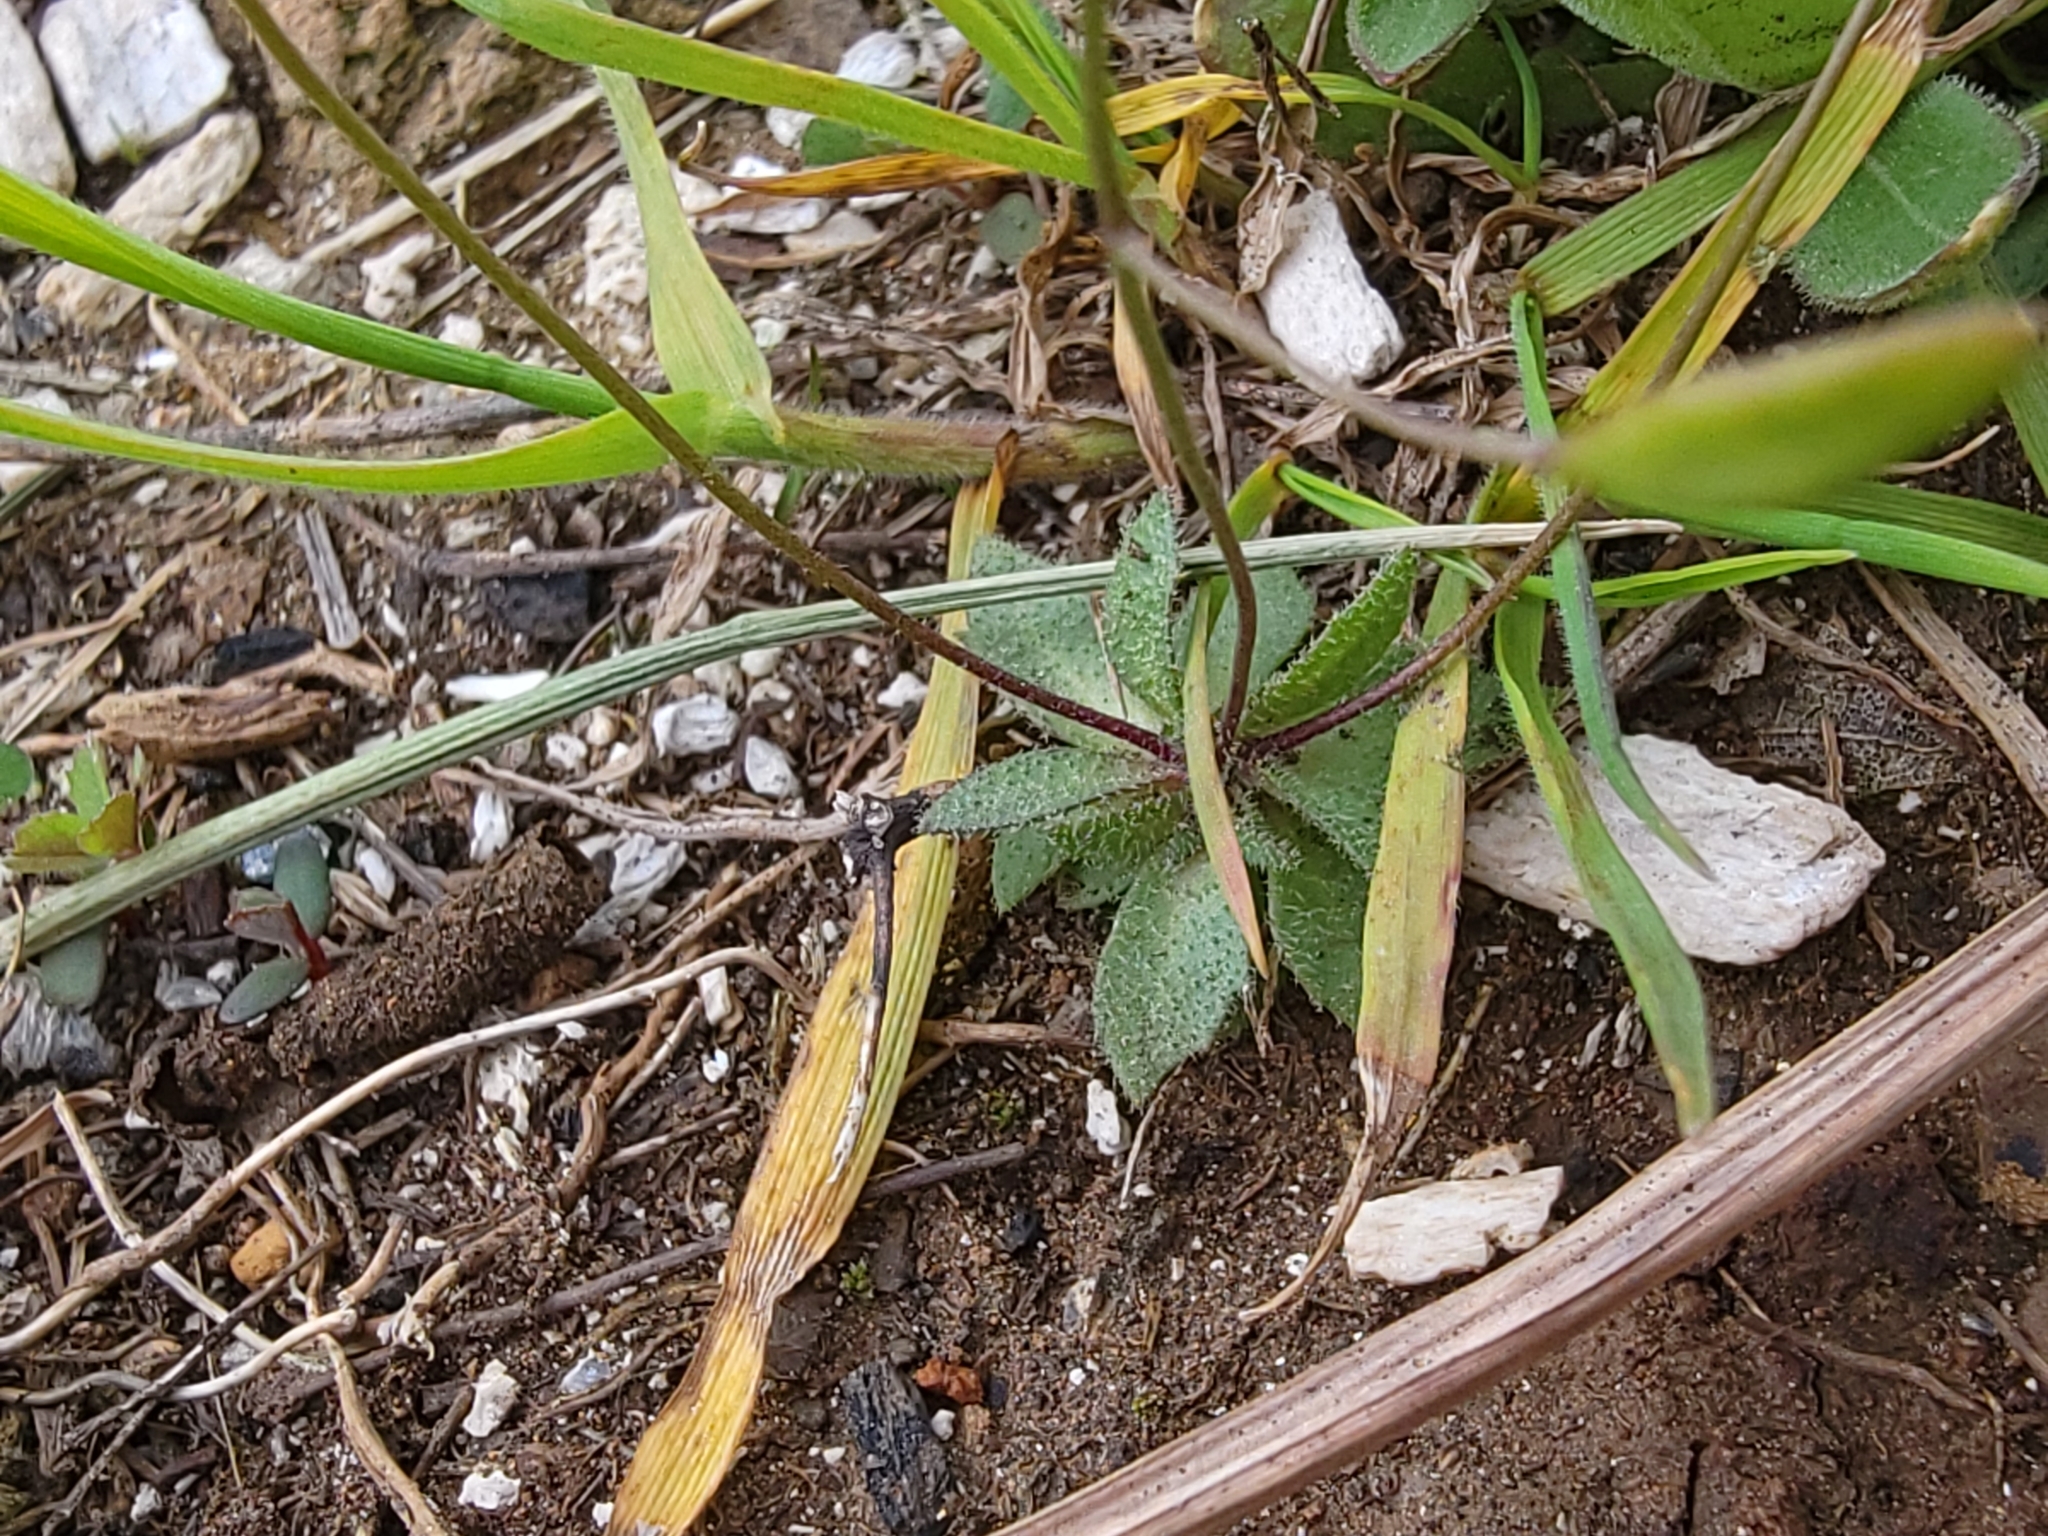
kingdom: Plantae
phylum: Tracheophyta
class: Magnoliopsida
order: Brassicales
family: Brassicaceae
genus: Draba
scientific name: Draba verna
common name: Spring draba
